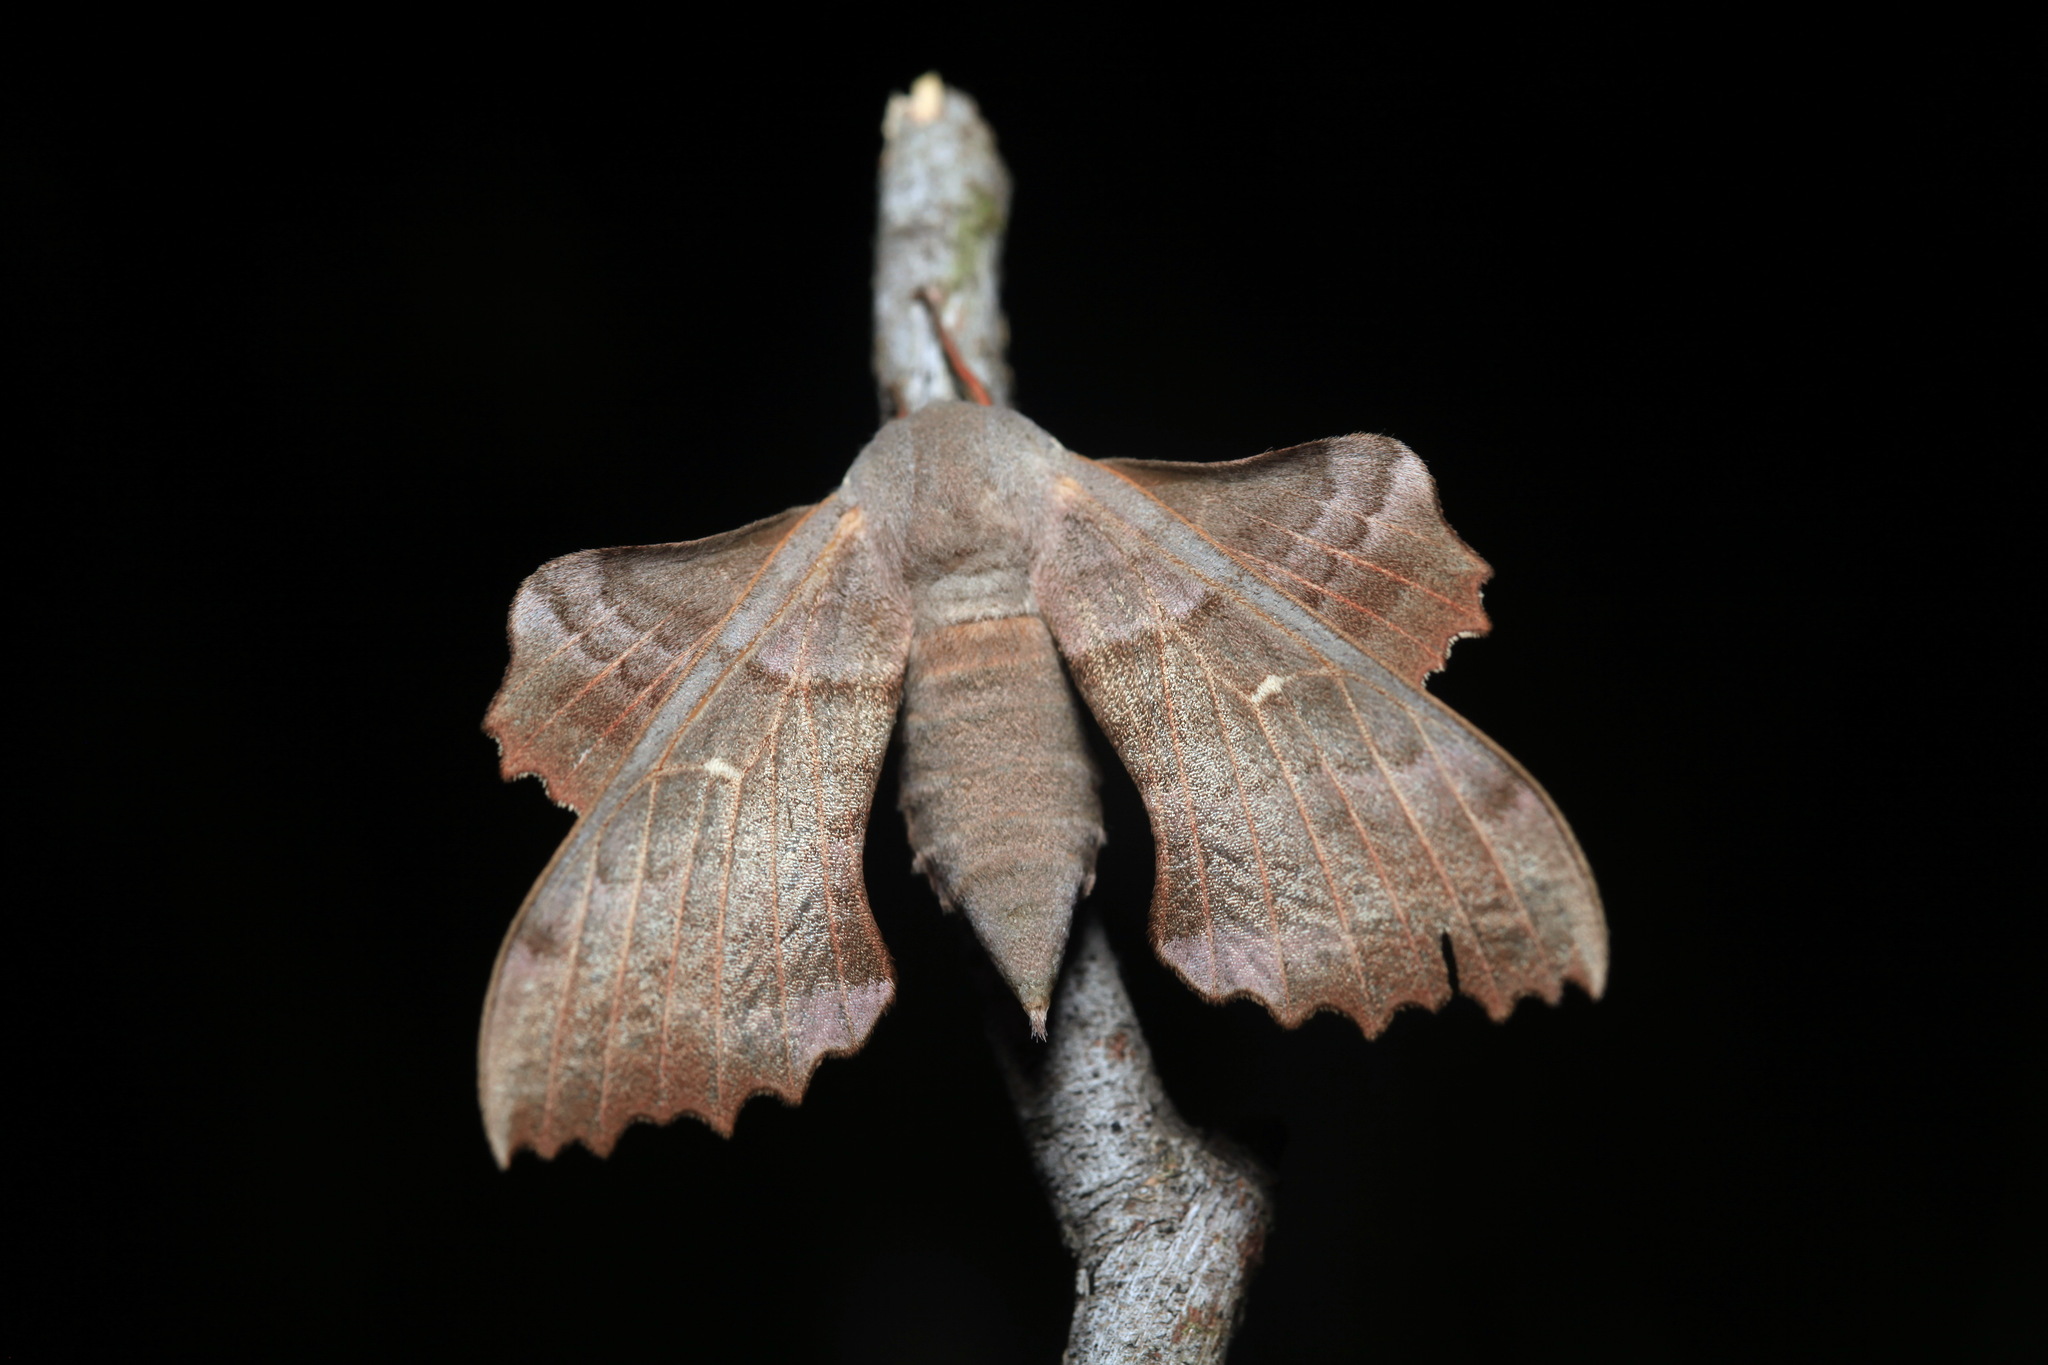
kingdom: Animalia
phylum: Arthropoda
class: Insecta
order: Lepidoptera
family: Sphingidae
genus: Laothoe
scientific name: Laothoe populi
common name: Poplar hawk-moth
